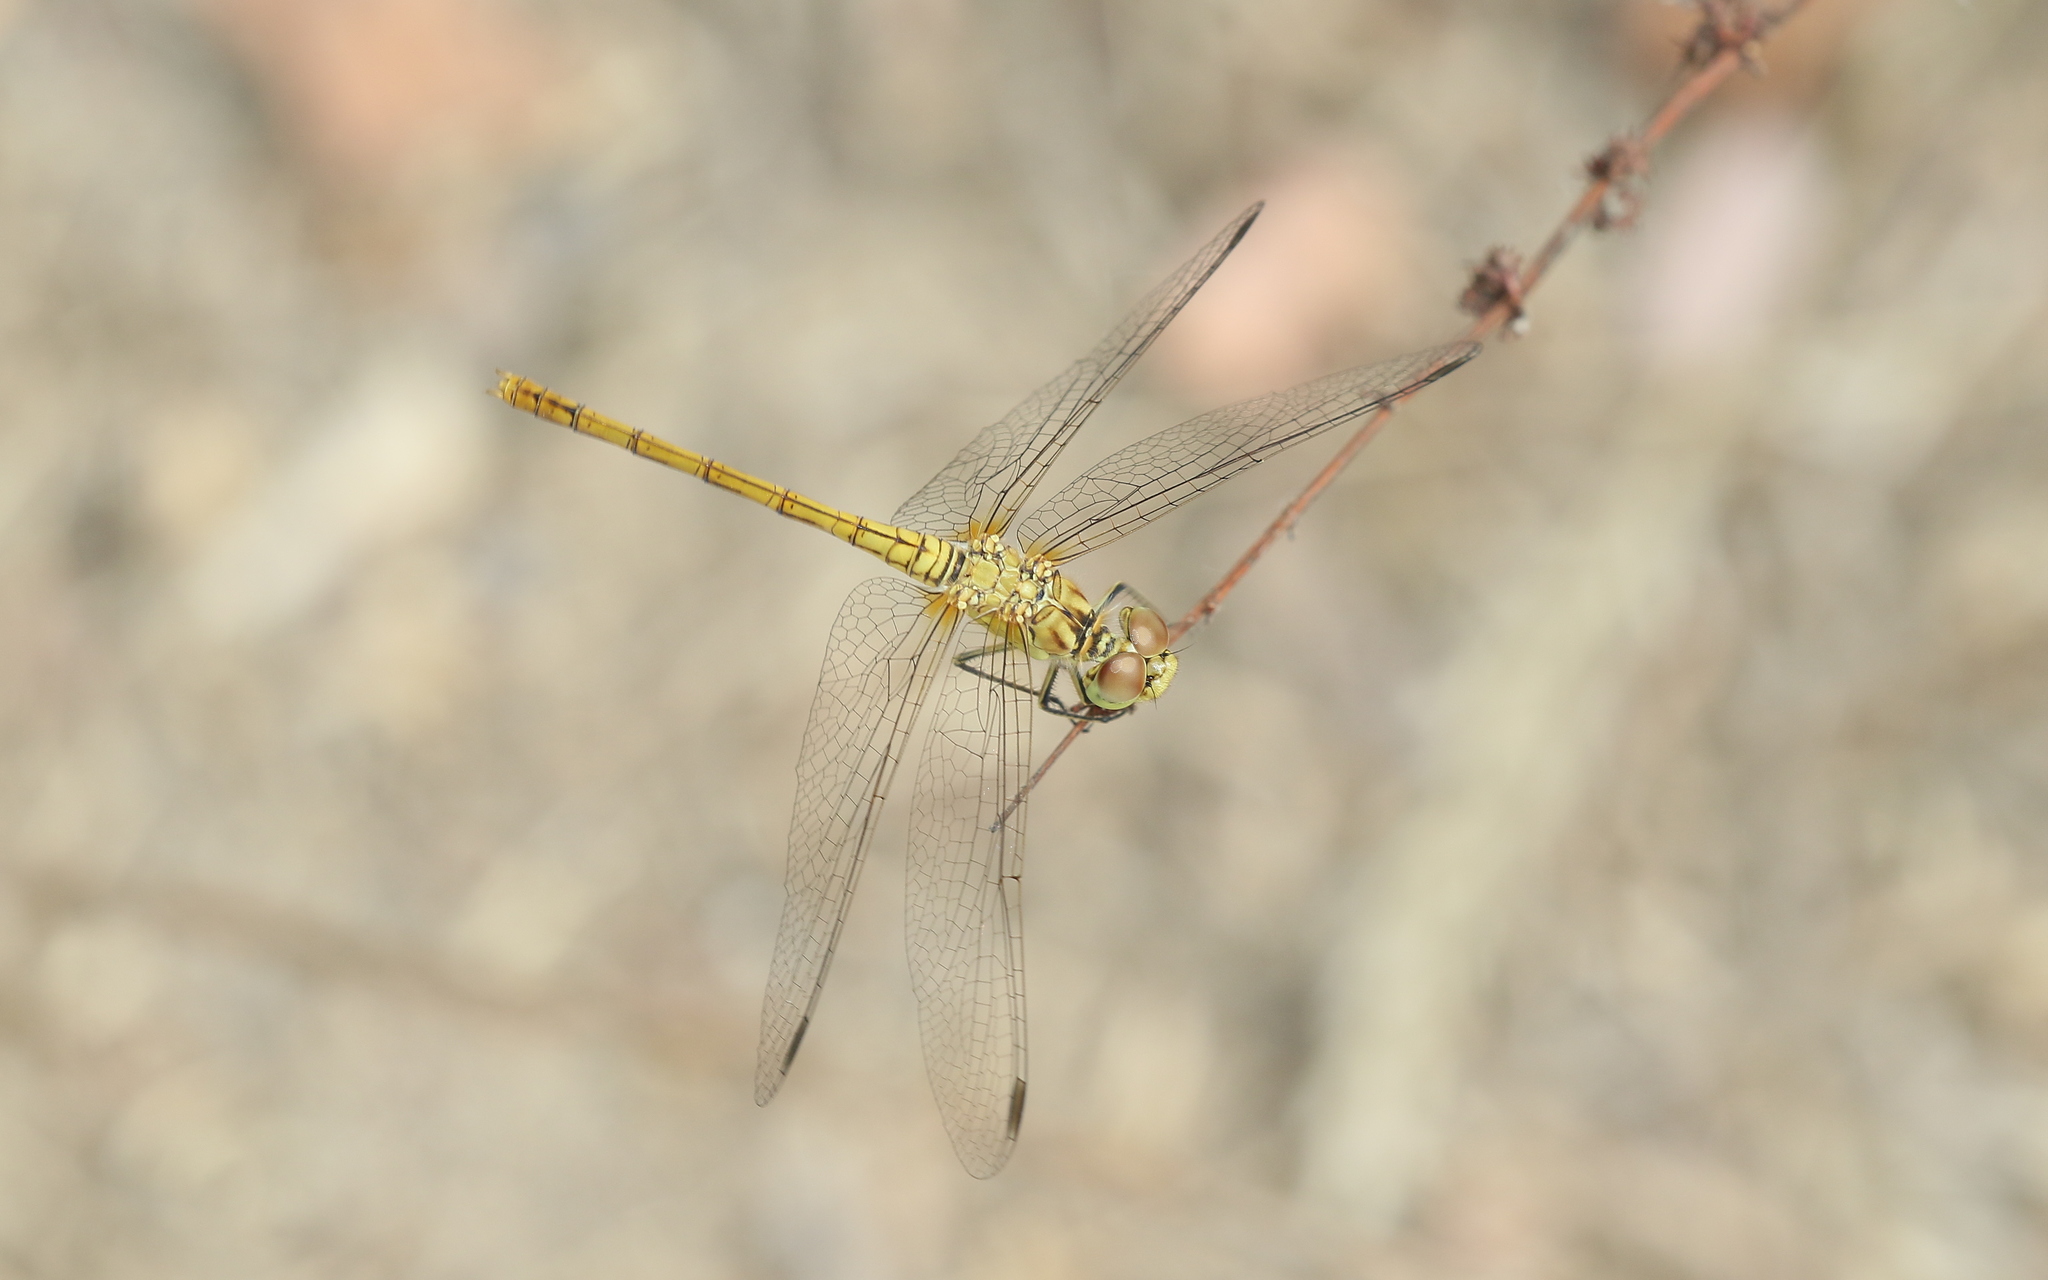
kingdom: Animalia
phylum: Arthropoda
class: Insecta
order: Odonata
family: Libellulidae
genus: Sympetrum
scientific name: Sympetrum meridionale
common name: Southern darter
